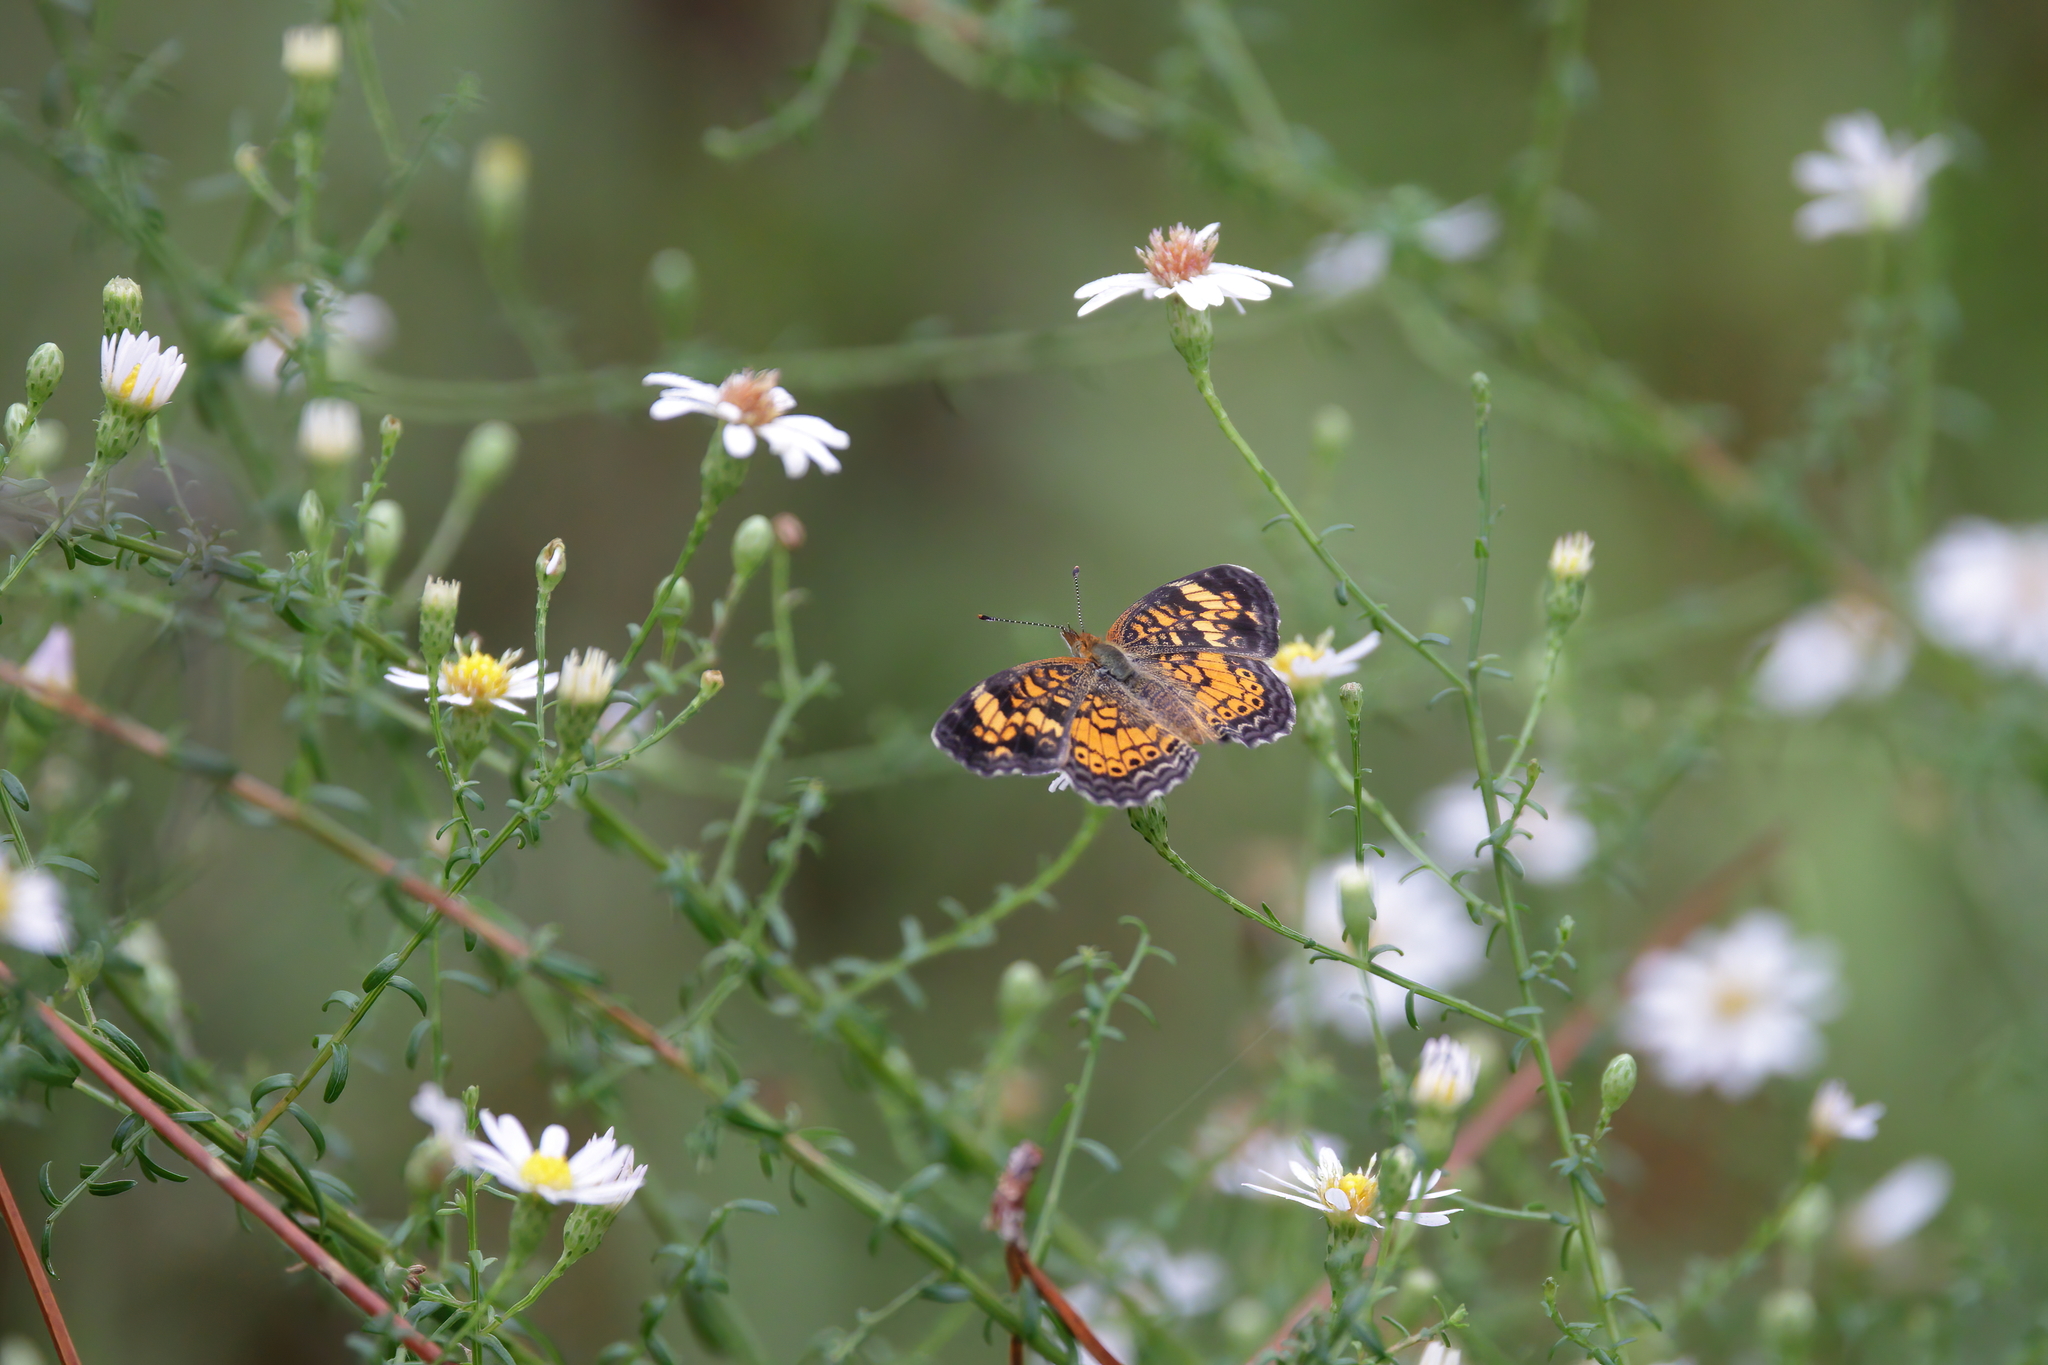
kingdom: Animalia
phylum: Arthropoda
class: Insecta
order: Lepidoptera
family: Nymphalidae
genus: Phyciodes
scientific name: Phyciodes tharos
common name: Pearl crescent
